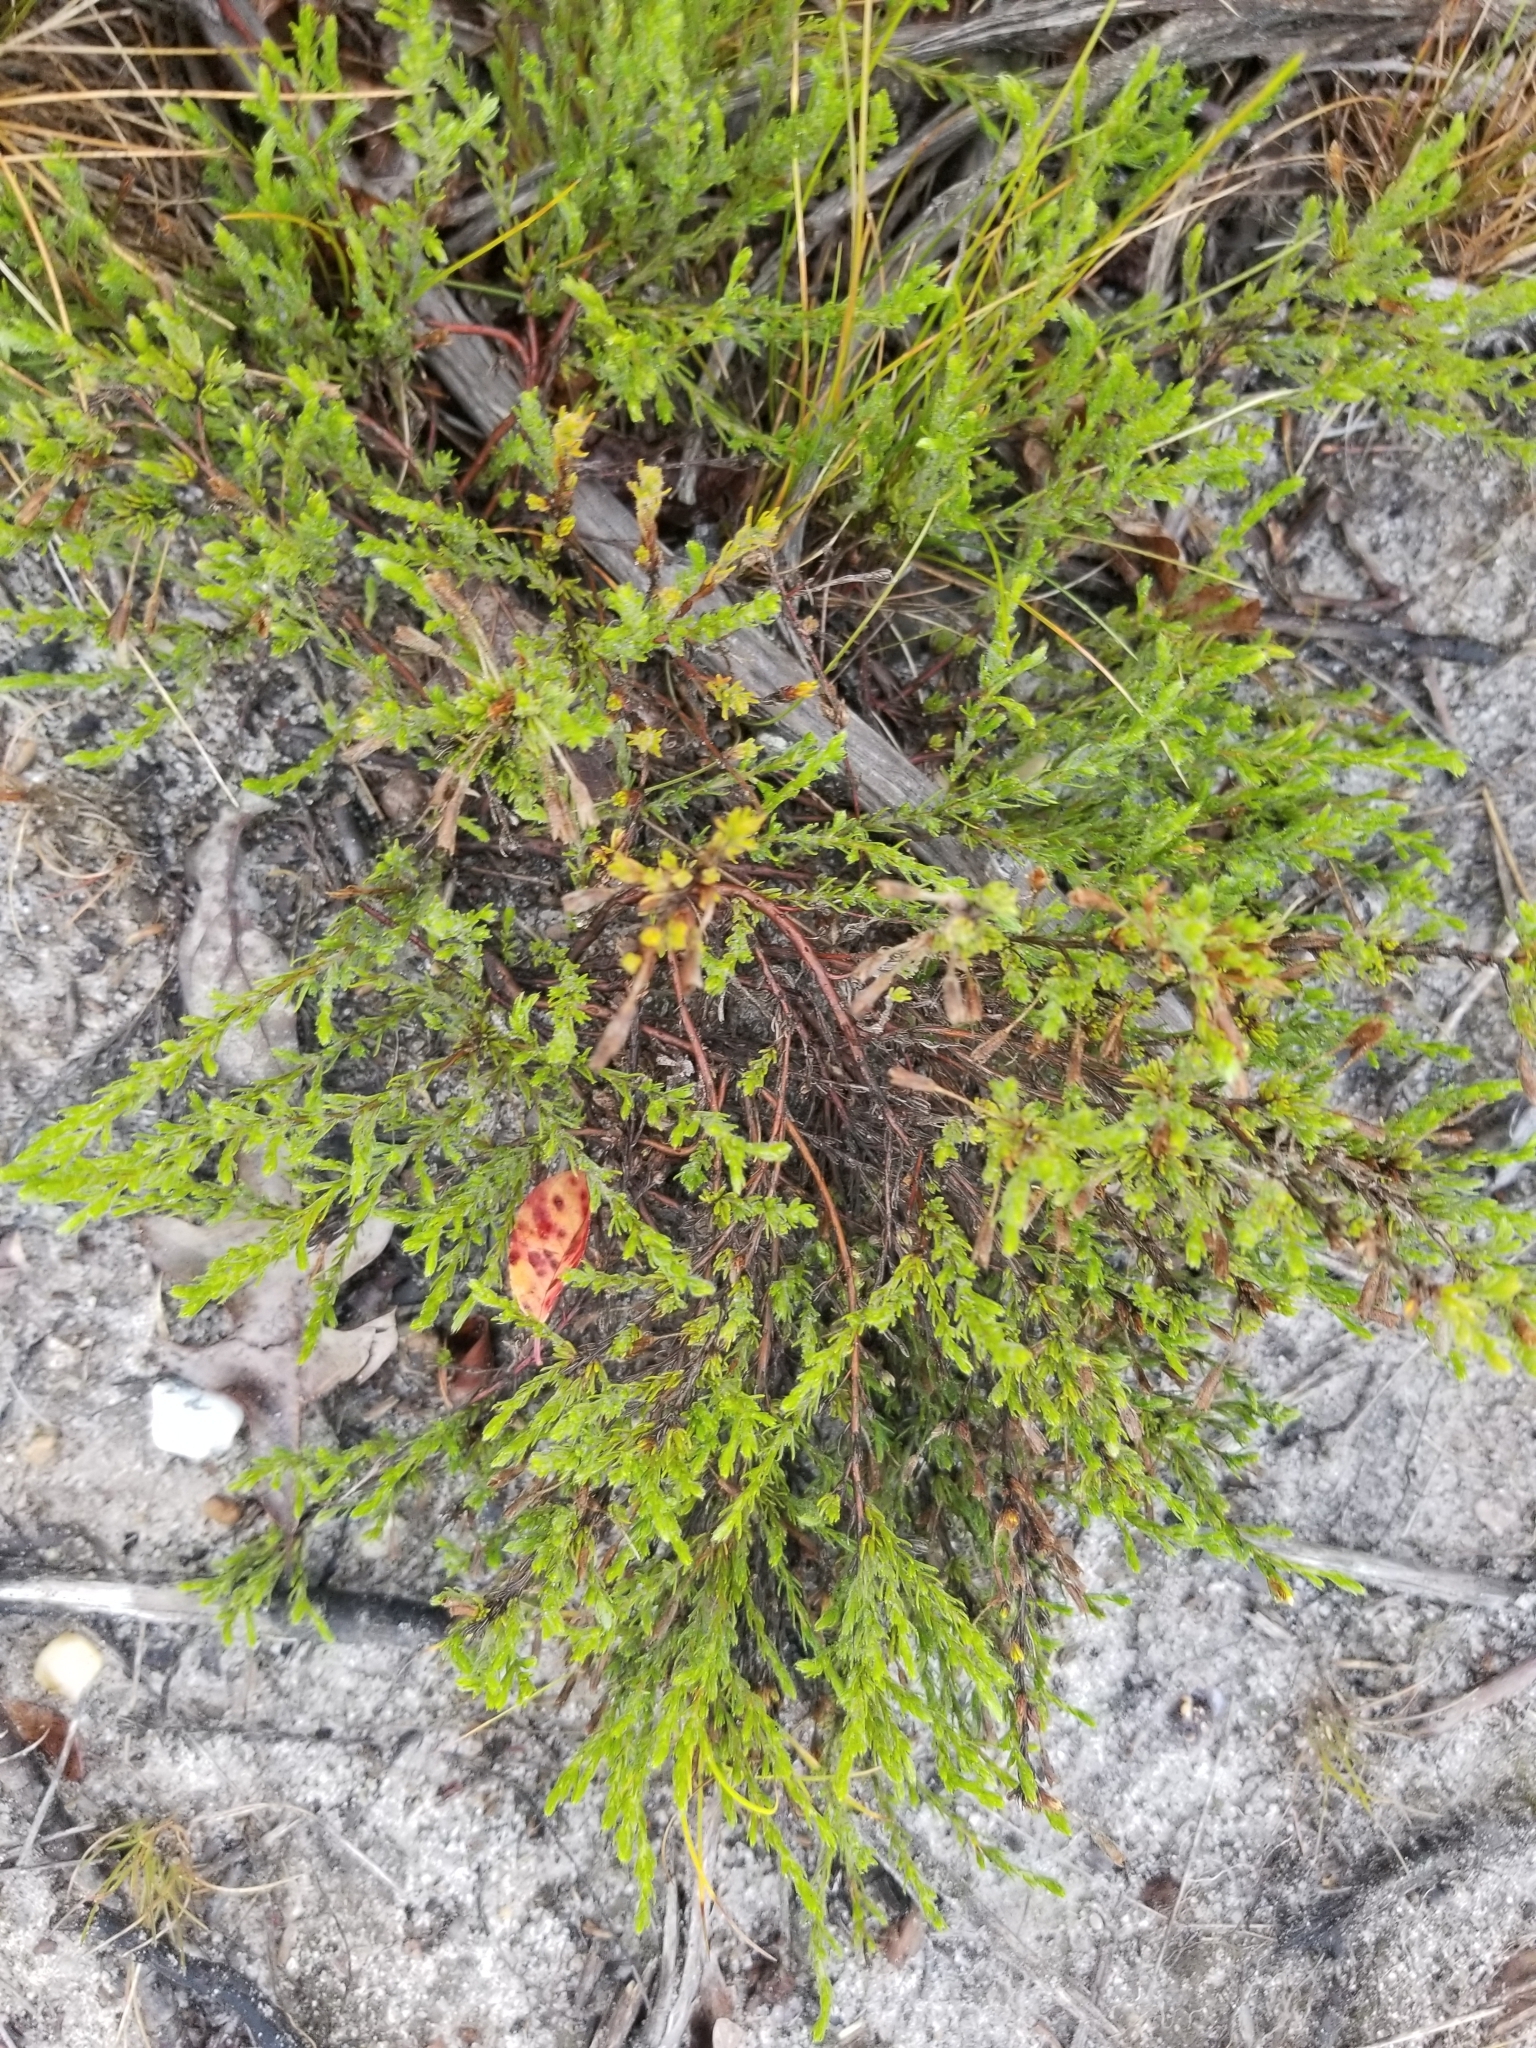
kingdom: Plantae
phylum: Tracheophyta
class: Magnoliopsida
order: Malvales
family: Cistaceae
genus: Hudsonia
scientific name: Hudsonia ericoides
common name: Golden-heather
